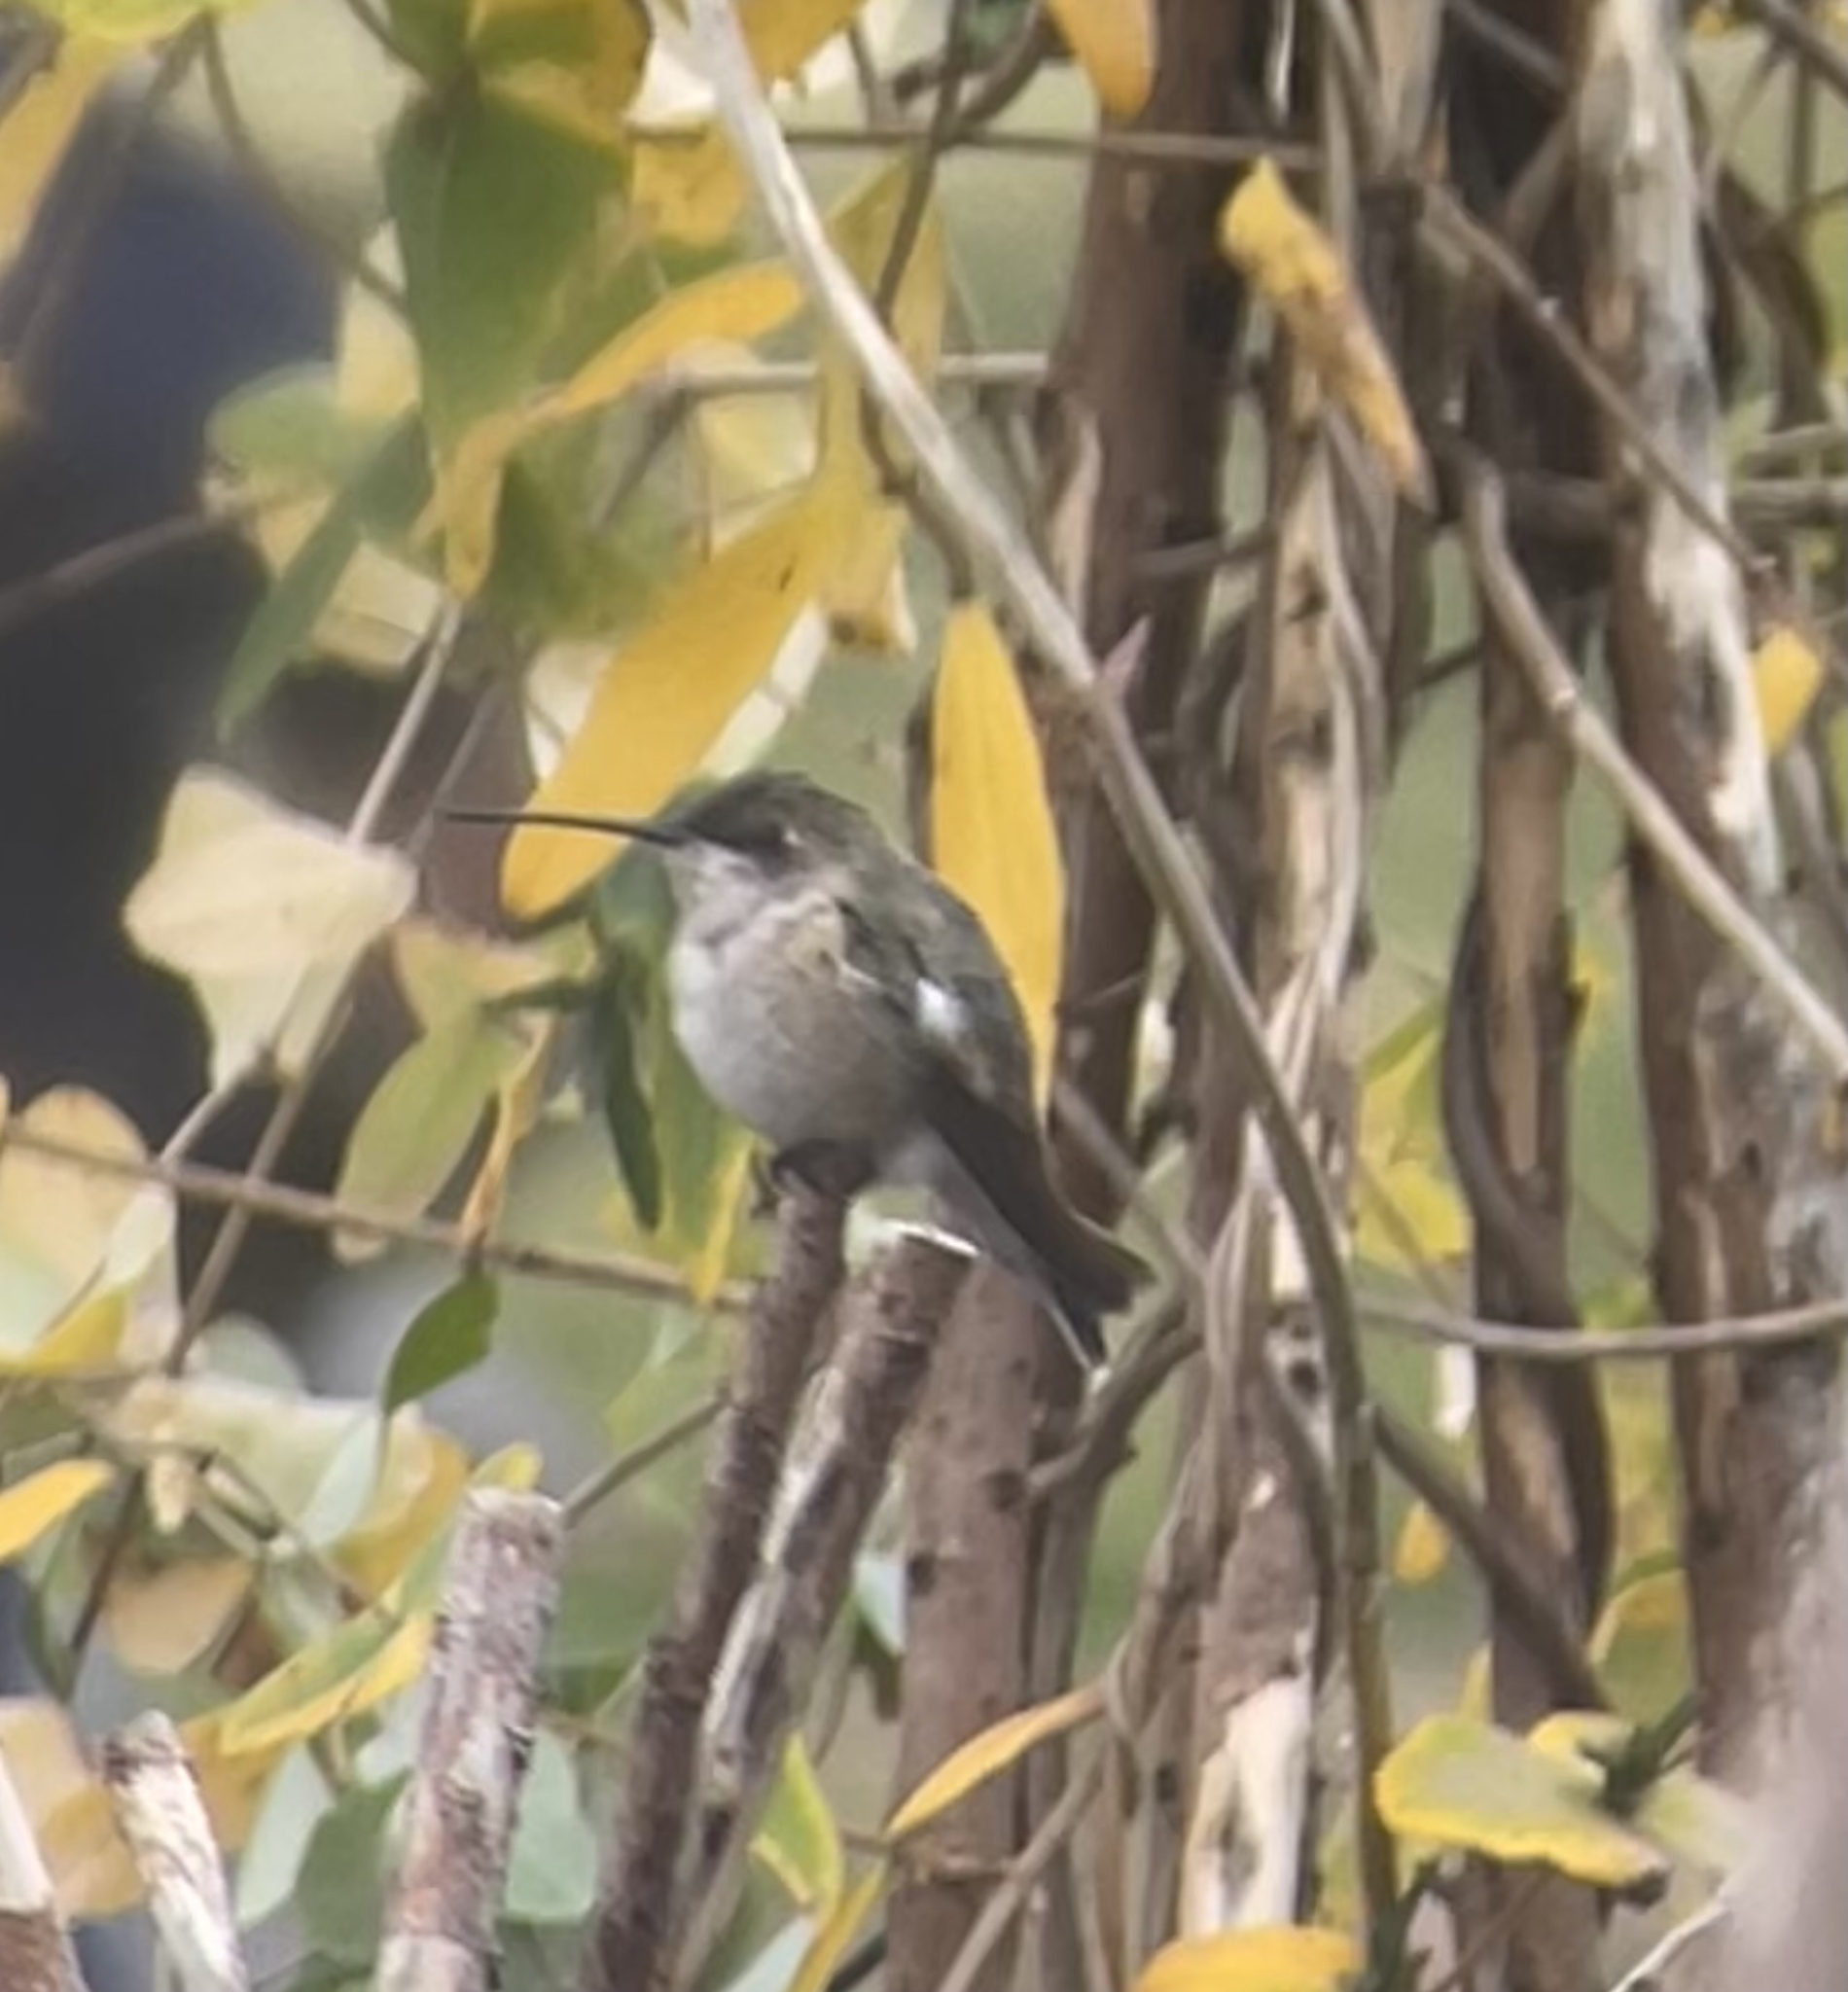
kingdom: Animalia
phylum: Chordata
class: Aves
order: Apodiformes
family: Trochilidae
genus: Archilochus
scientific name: Archilochus alexandri
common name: Black-chinned hummingbird
